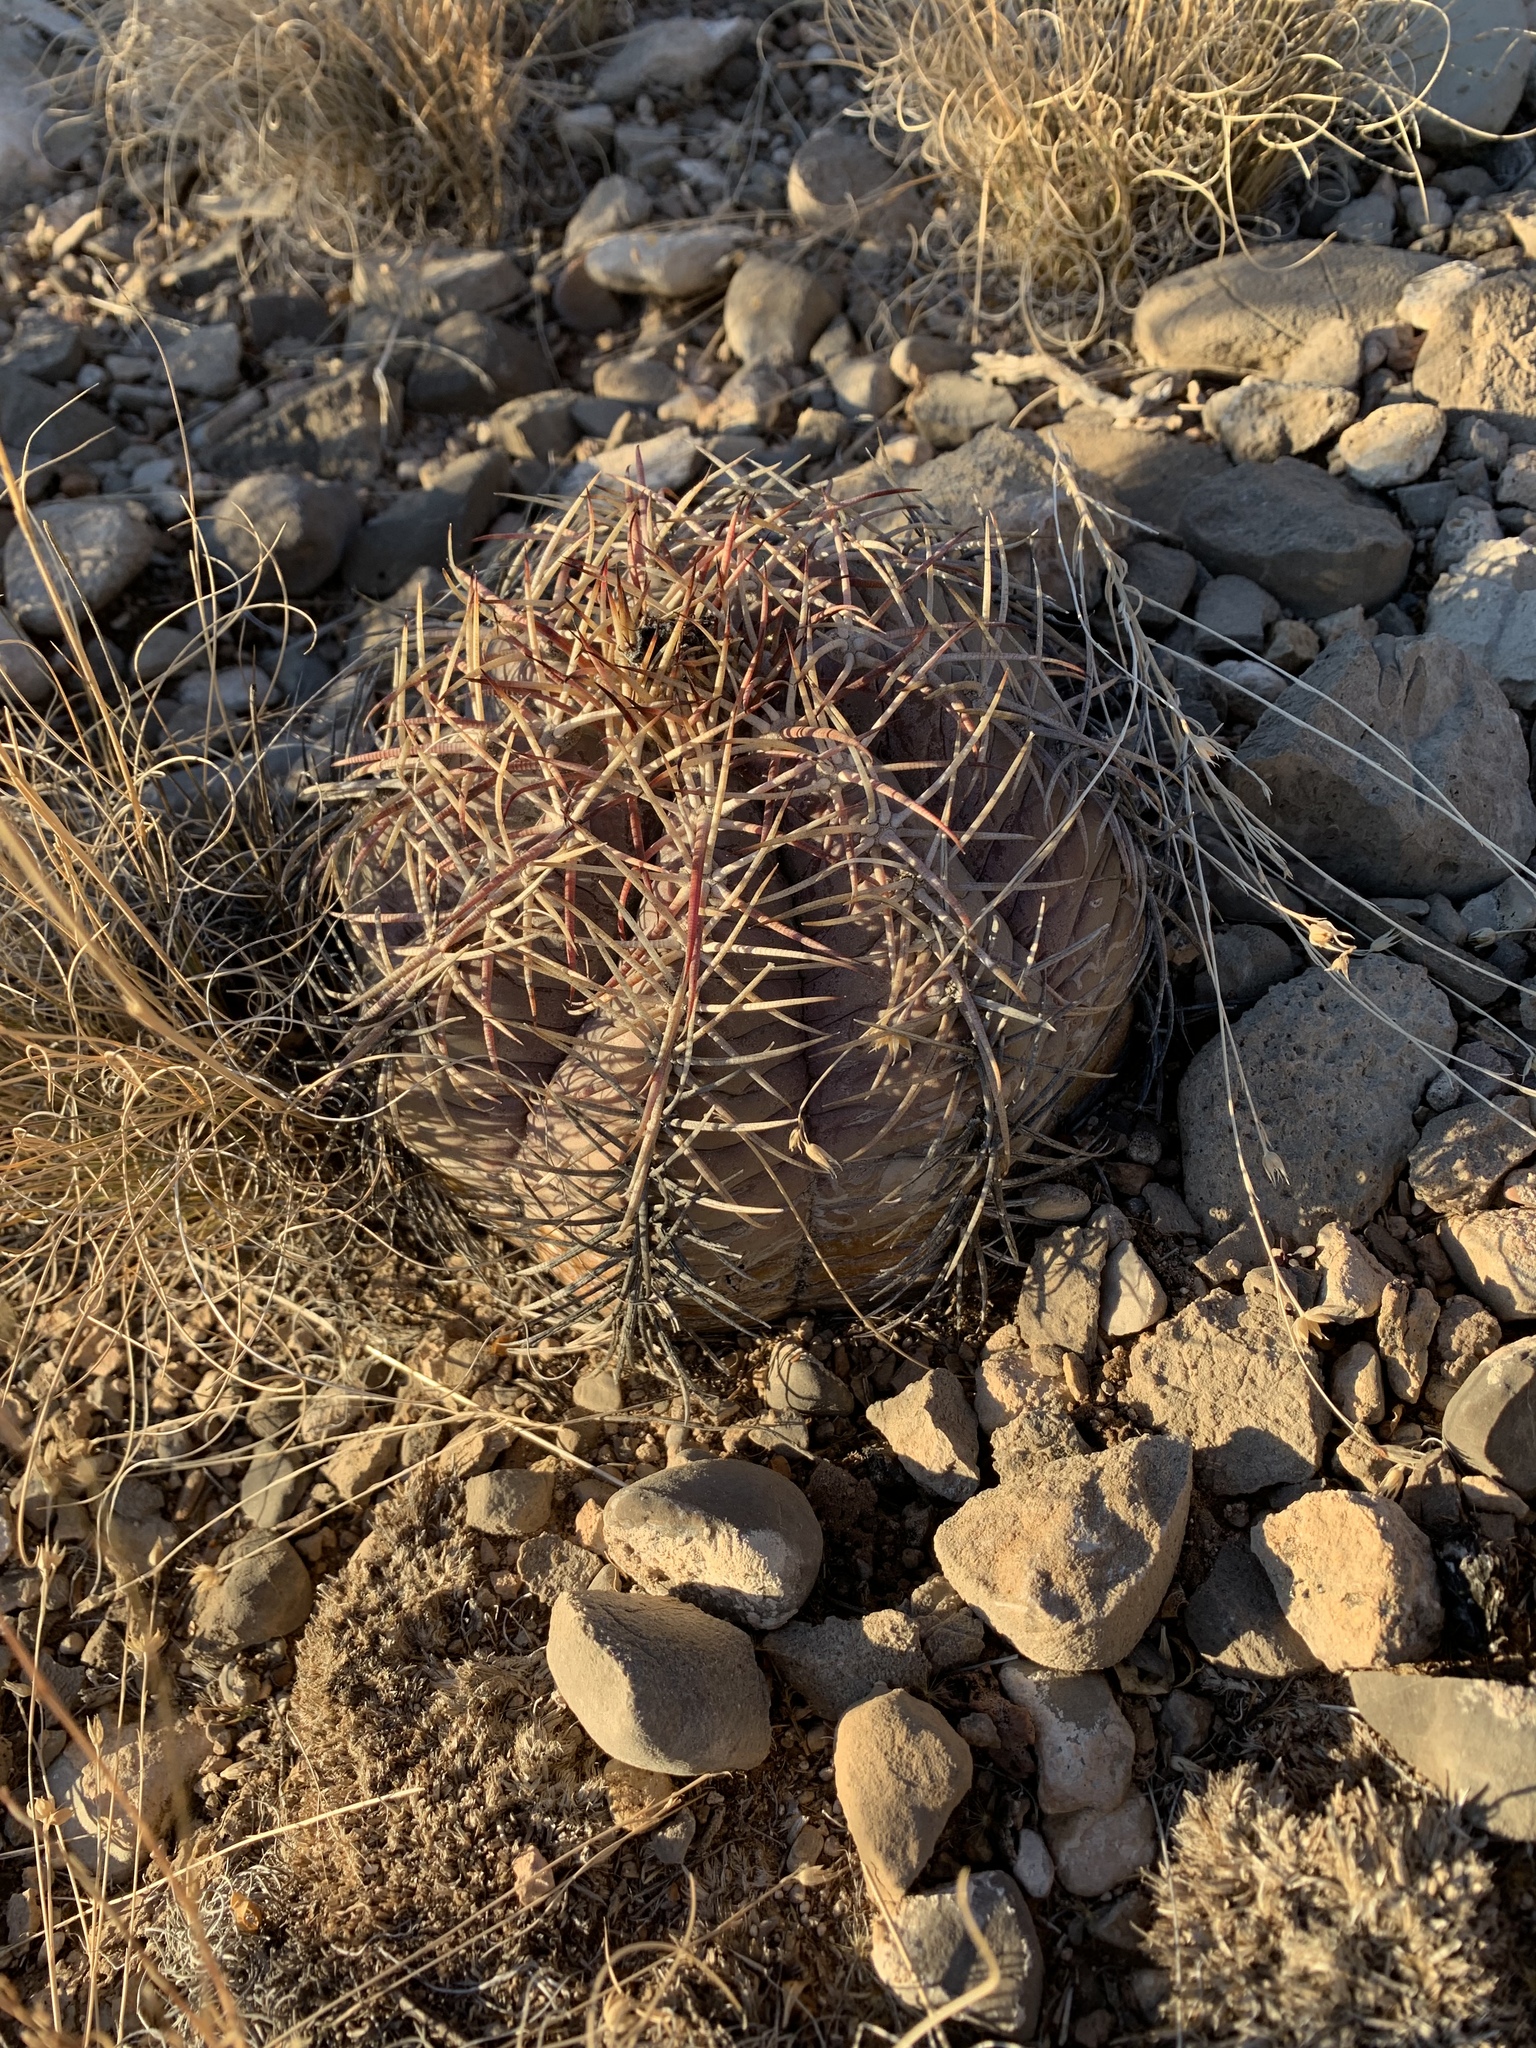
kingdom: Plantae
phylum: Tracheophyta
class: Magnoliopsida
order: Caryophyllales
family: Cactaceae
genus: Echinocactus
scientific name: Echinocactus horizonthalonius
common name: Devilshead
